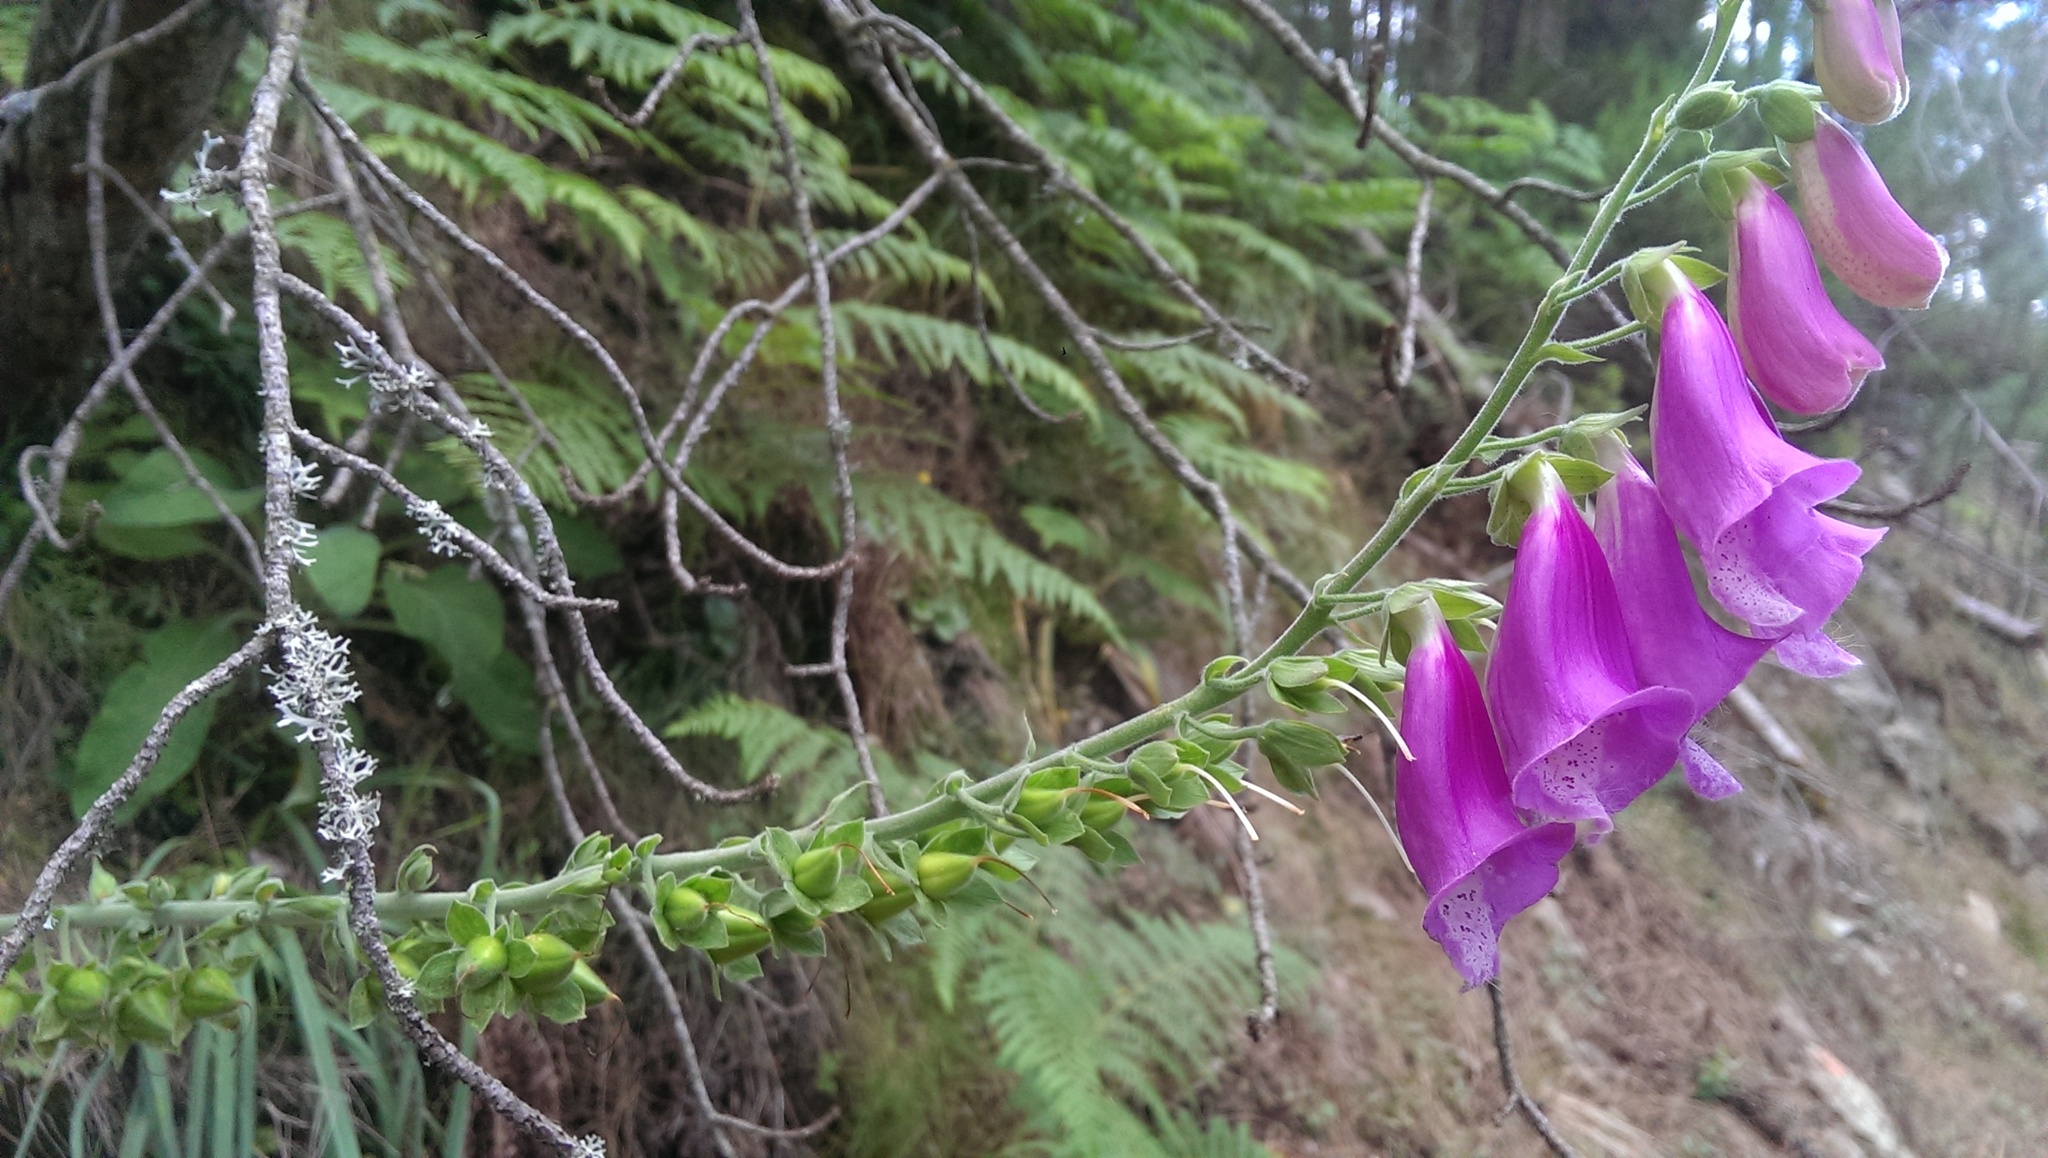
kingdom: Plantae
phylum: Tracheophyta
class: Magnoliopsida
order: Lamiales
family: Plantaginaceae
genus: Digitalis
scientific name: Digitalis purpurea
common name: Foxglove
